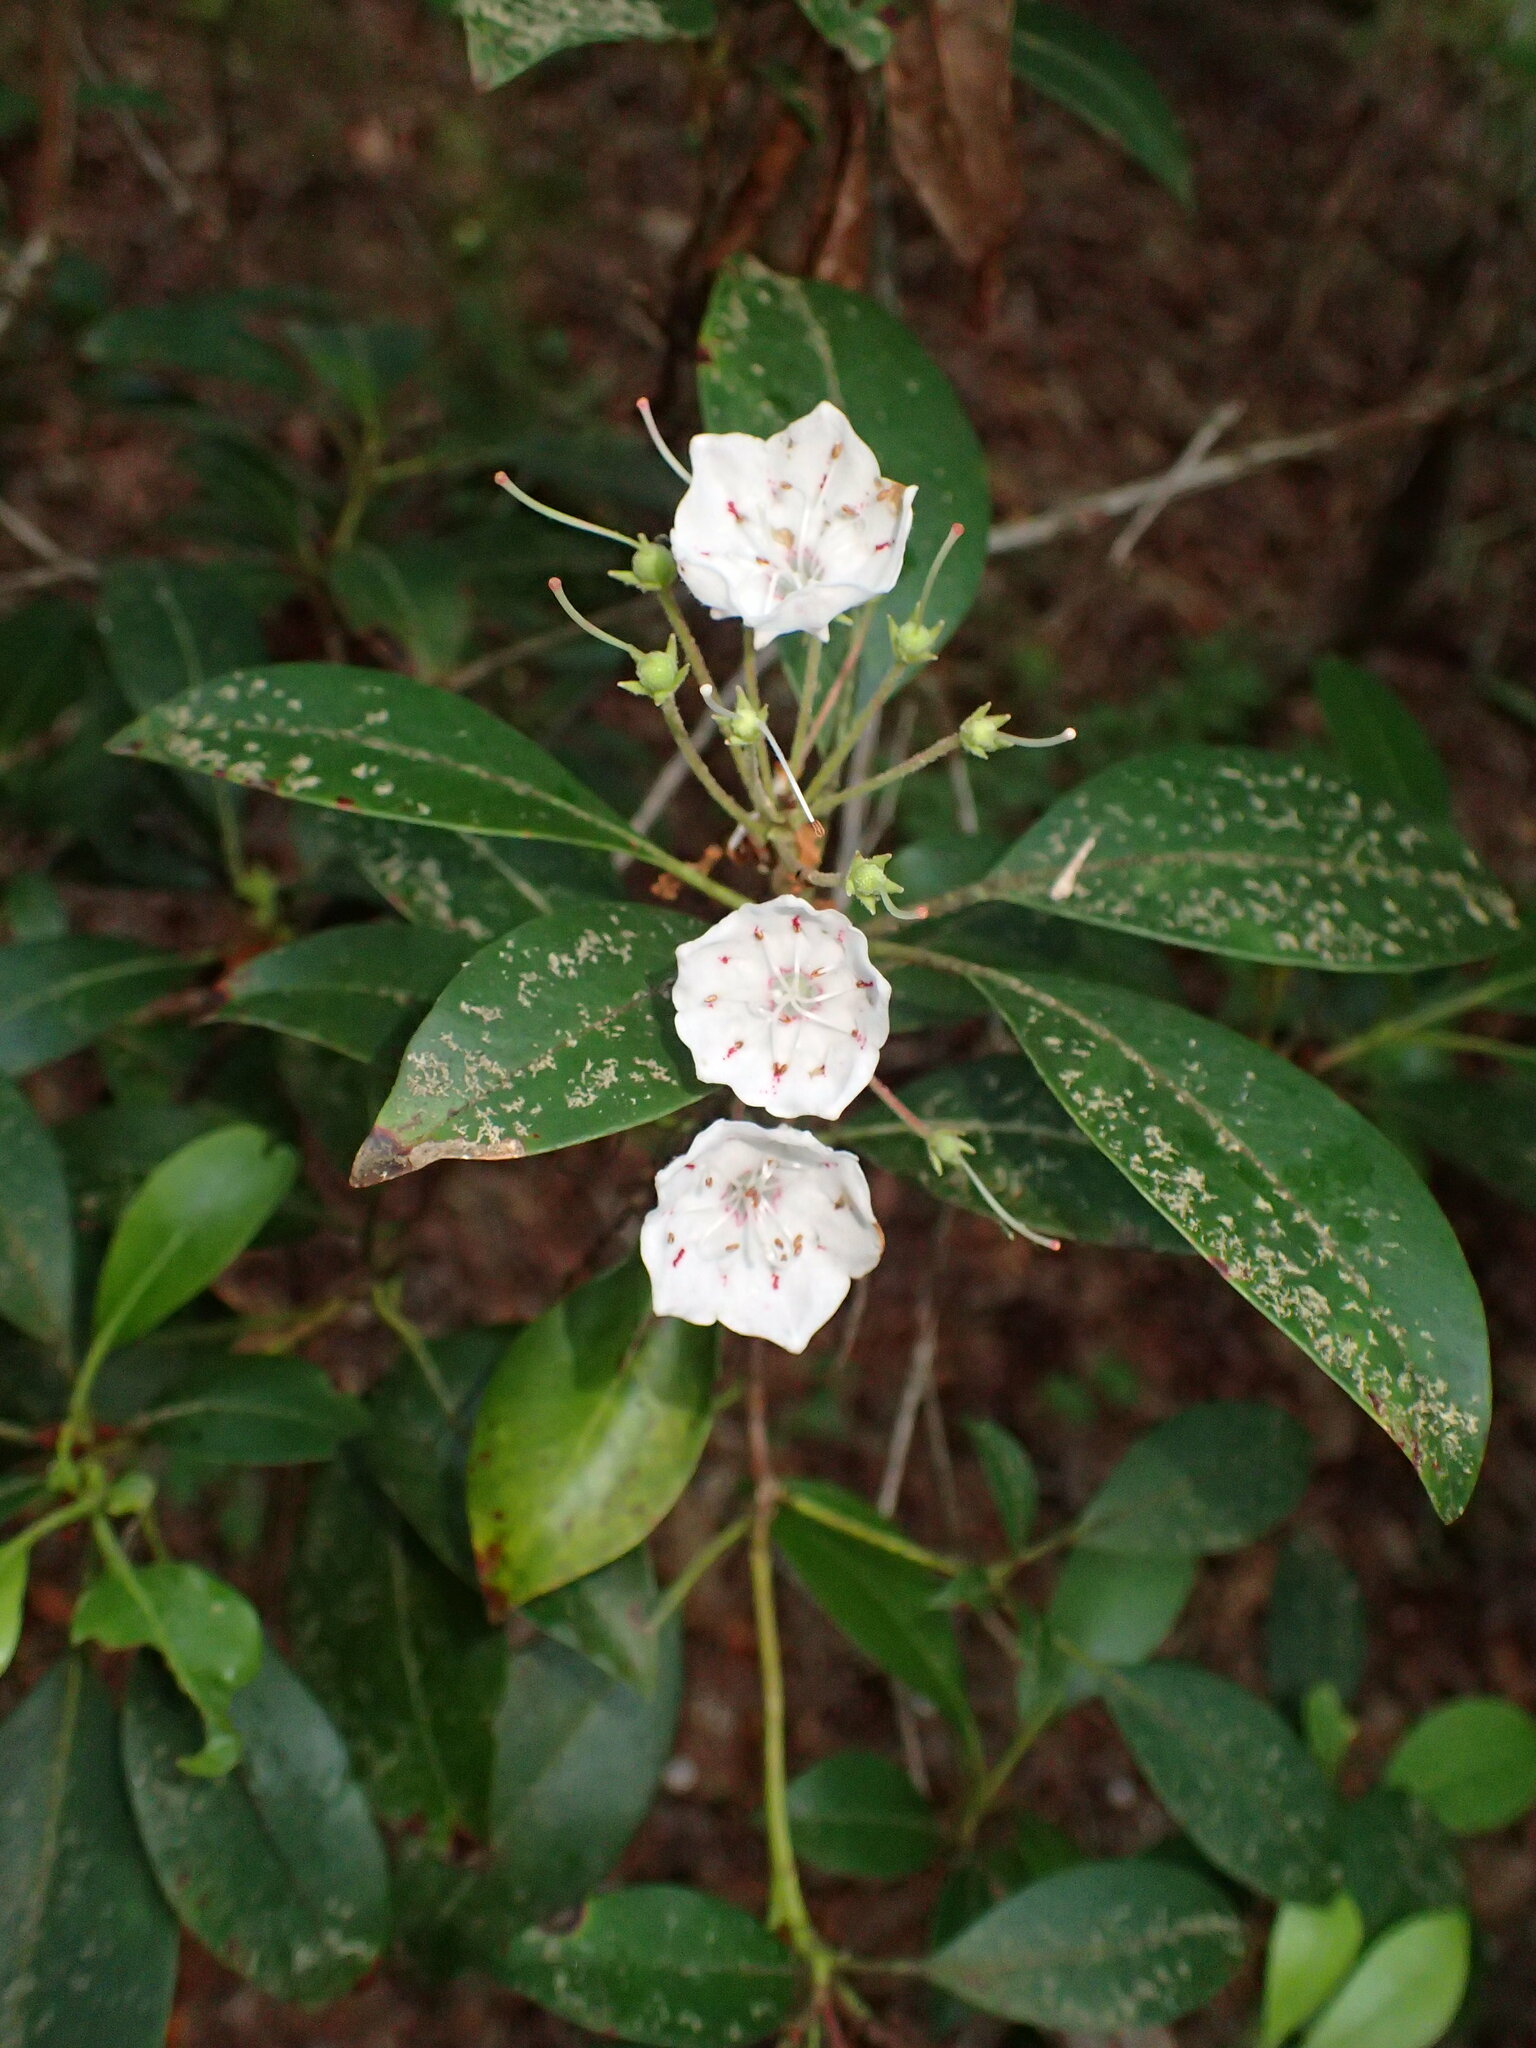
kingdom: Plantae
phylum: Tracheophyta
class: Magnoliopsida
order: Ericales
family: Ericaceae
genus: Kalmia
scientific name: Kalmia latifolia
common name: Mountain-laurel
